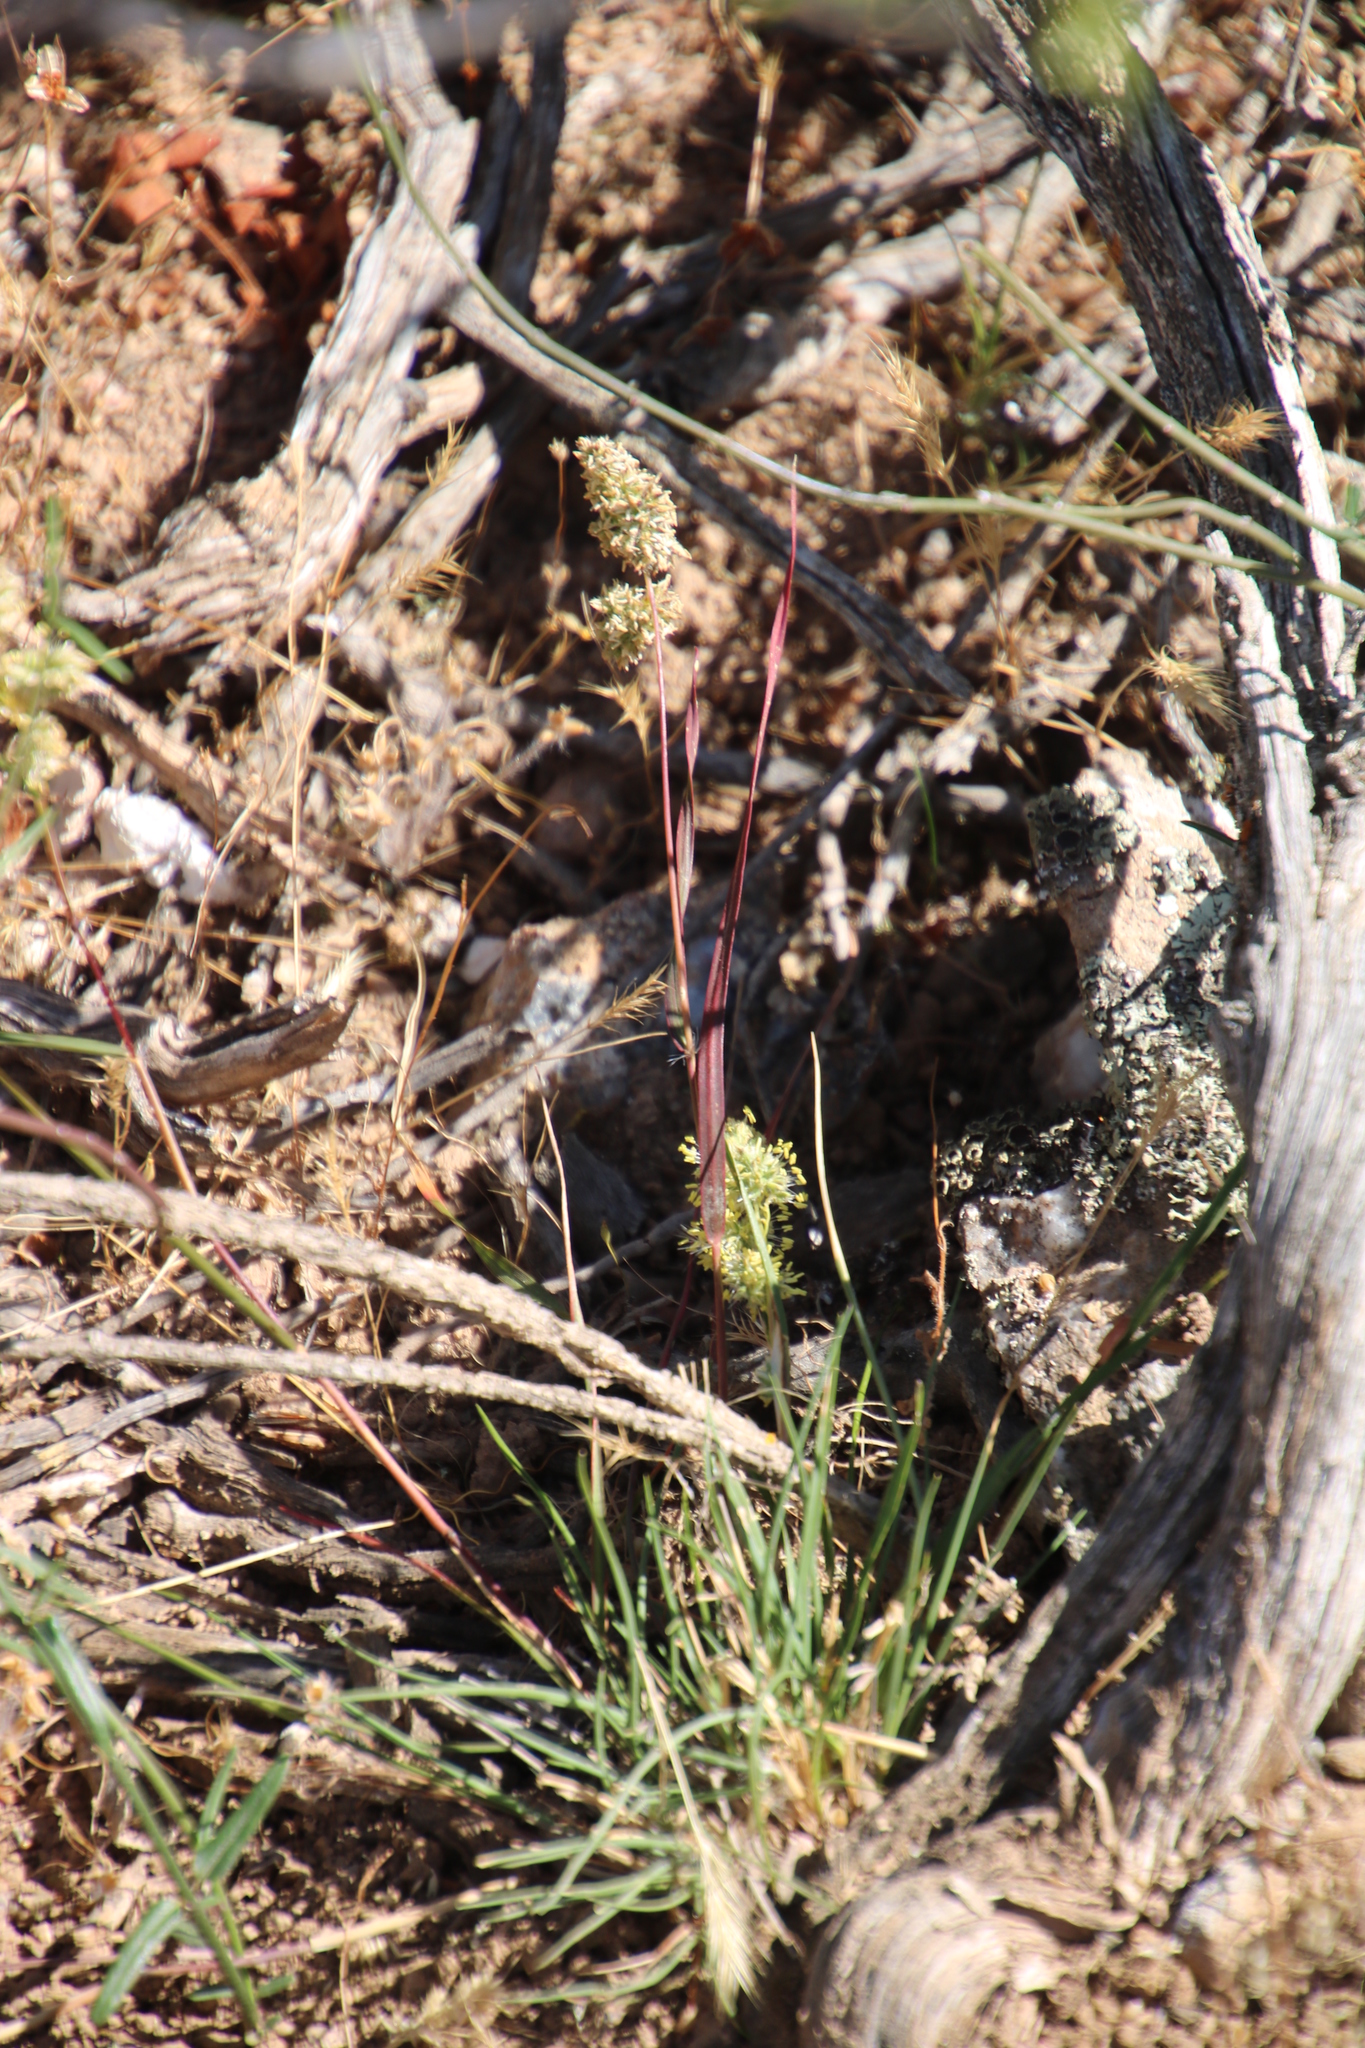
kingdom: Plantae
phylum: Tracheophyta
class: Liliopsida
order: Poales
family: Poaceae
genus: Tribolium
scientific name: Tribolium hispidum
